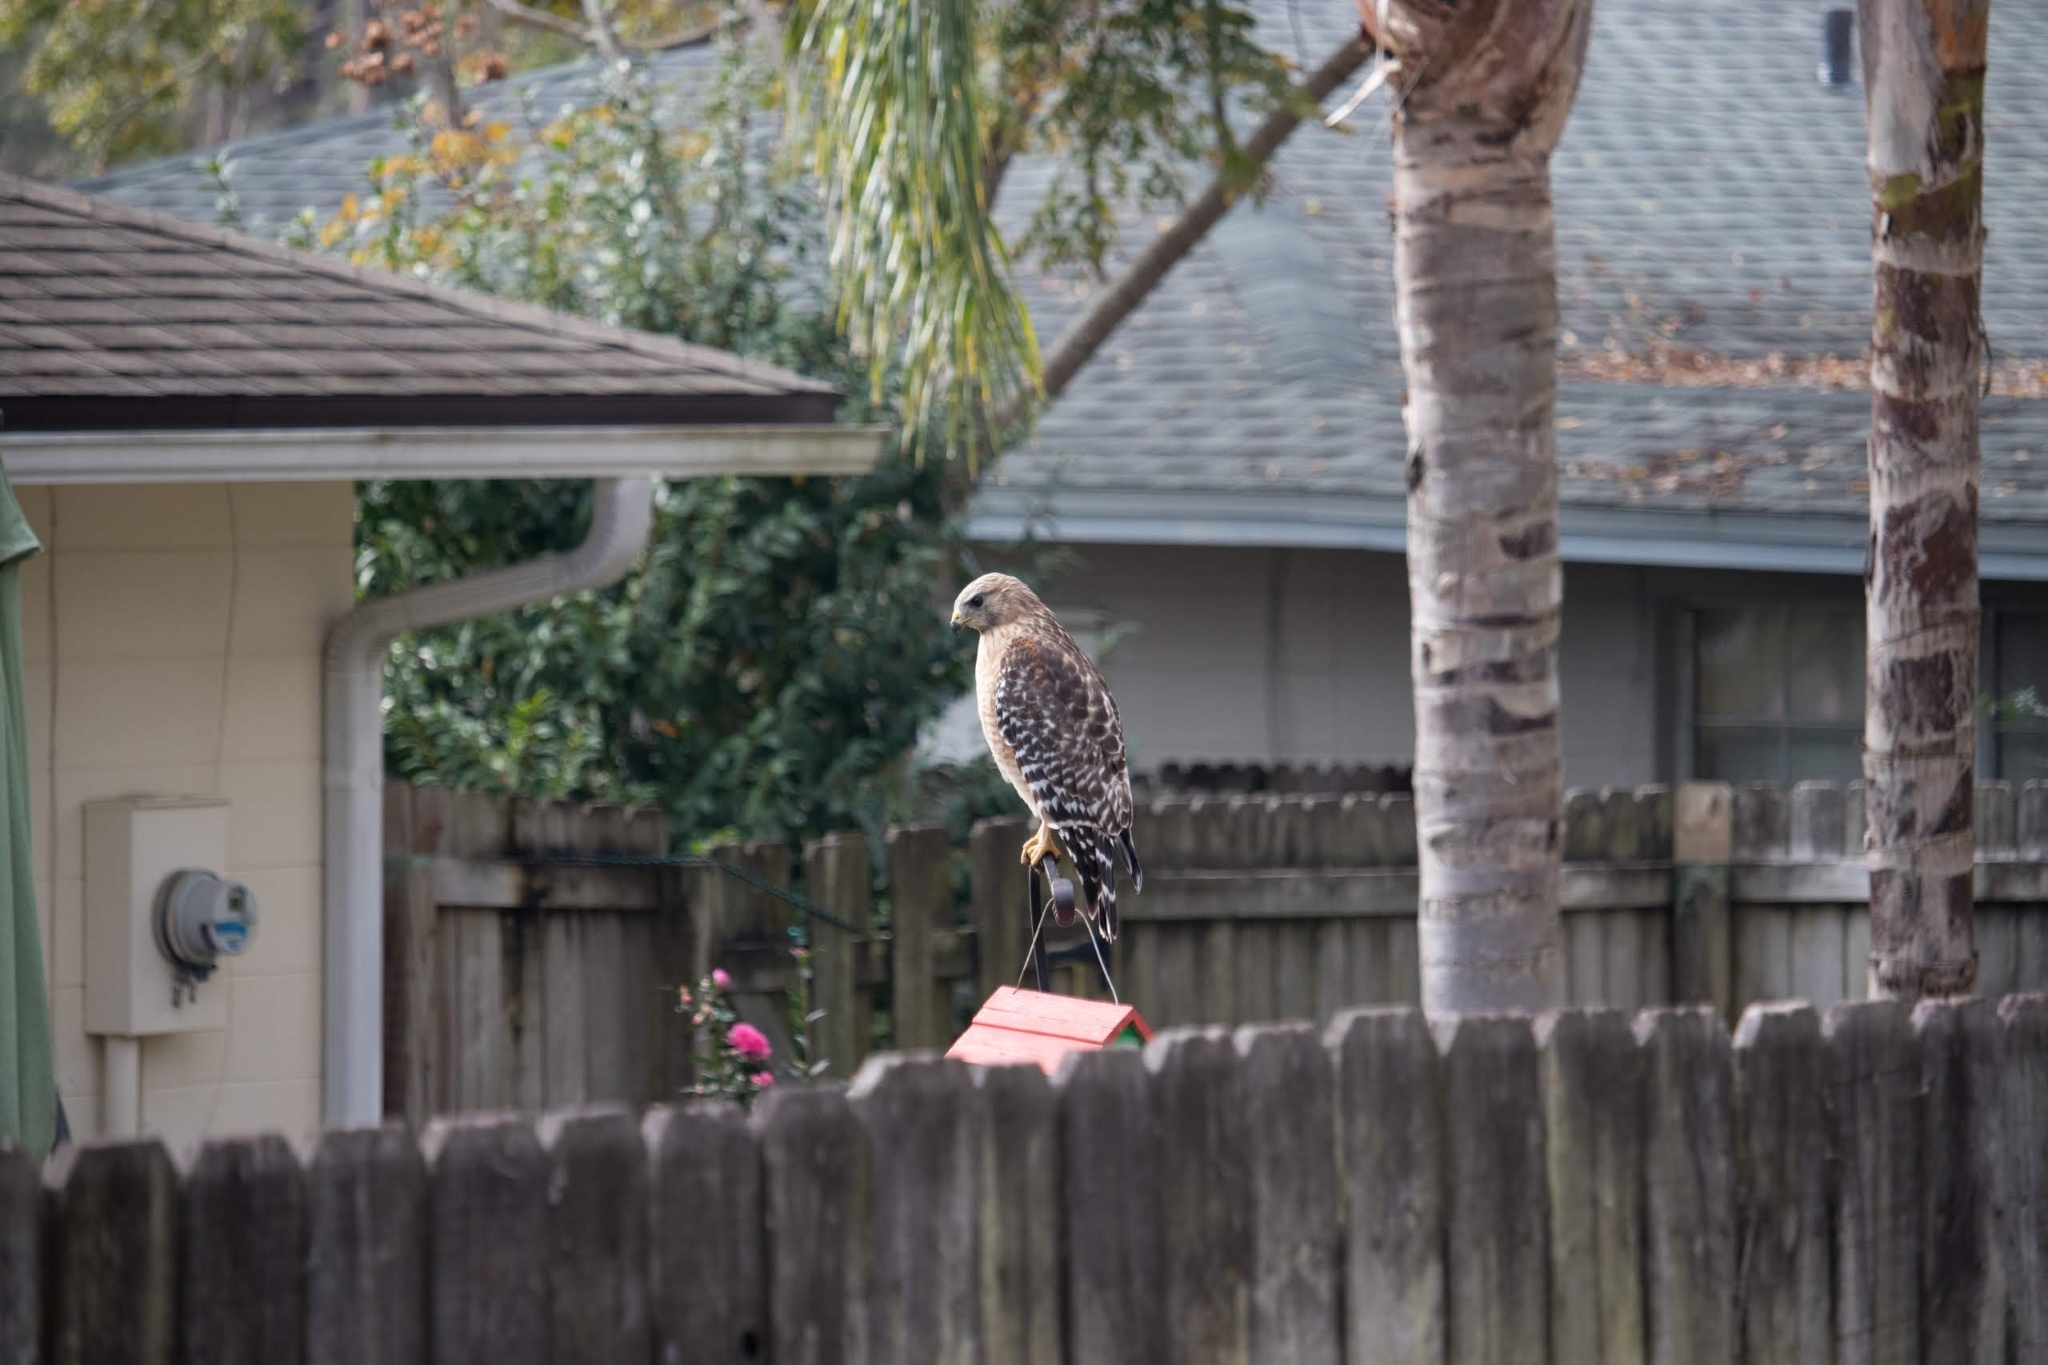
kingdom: Animalia
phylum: Chordata
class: Aves
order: Accipitriformes
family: Accipitridae
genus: Buteo
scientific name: Buteo lineatus
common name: Red-shouldered hawk
